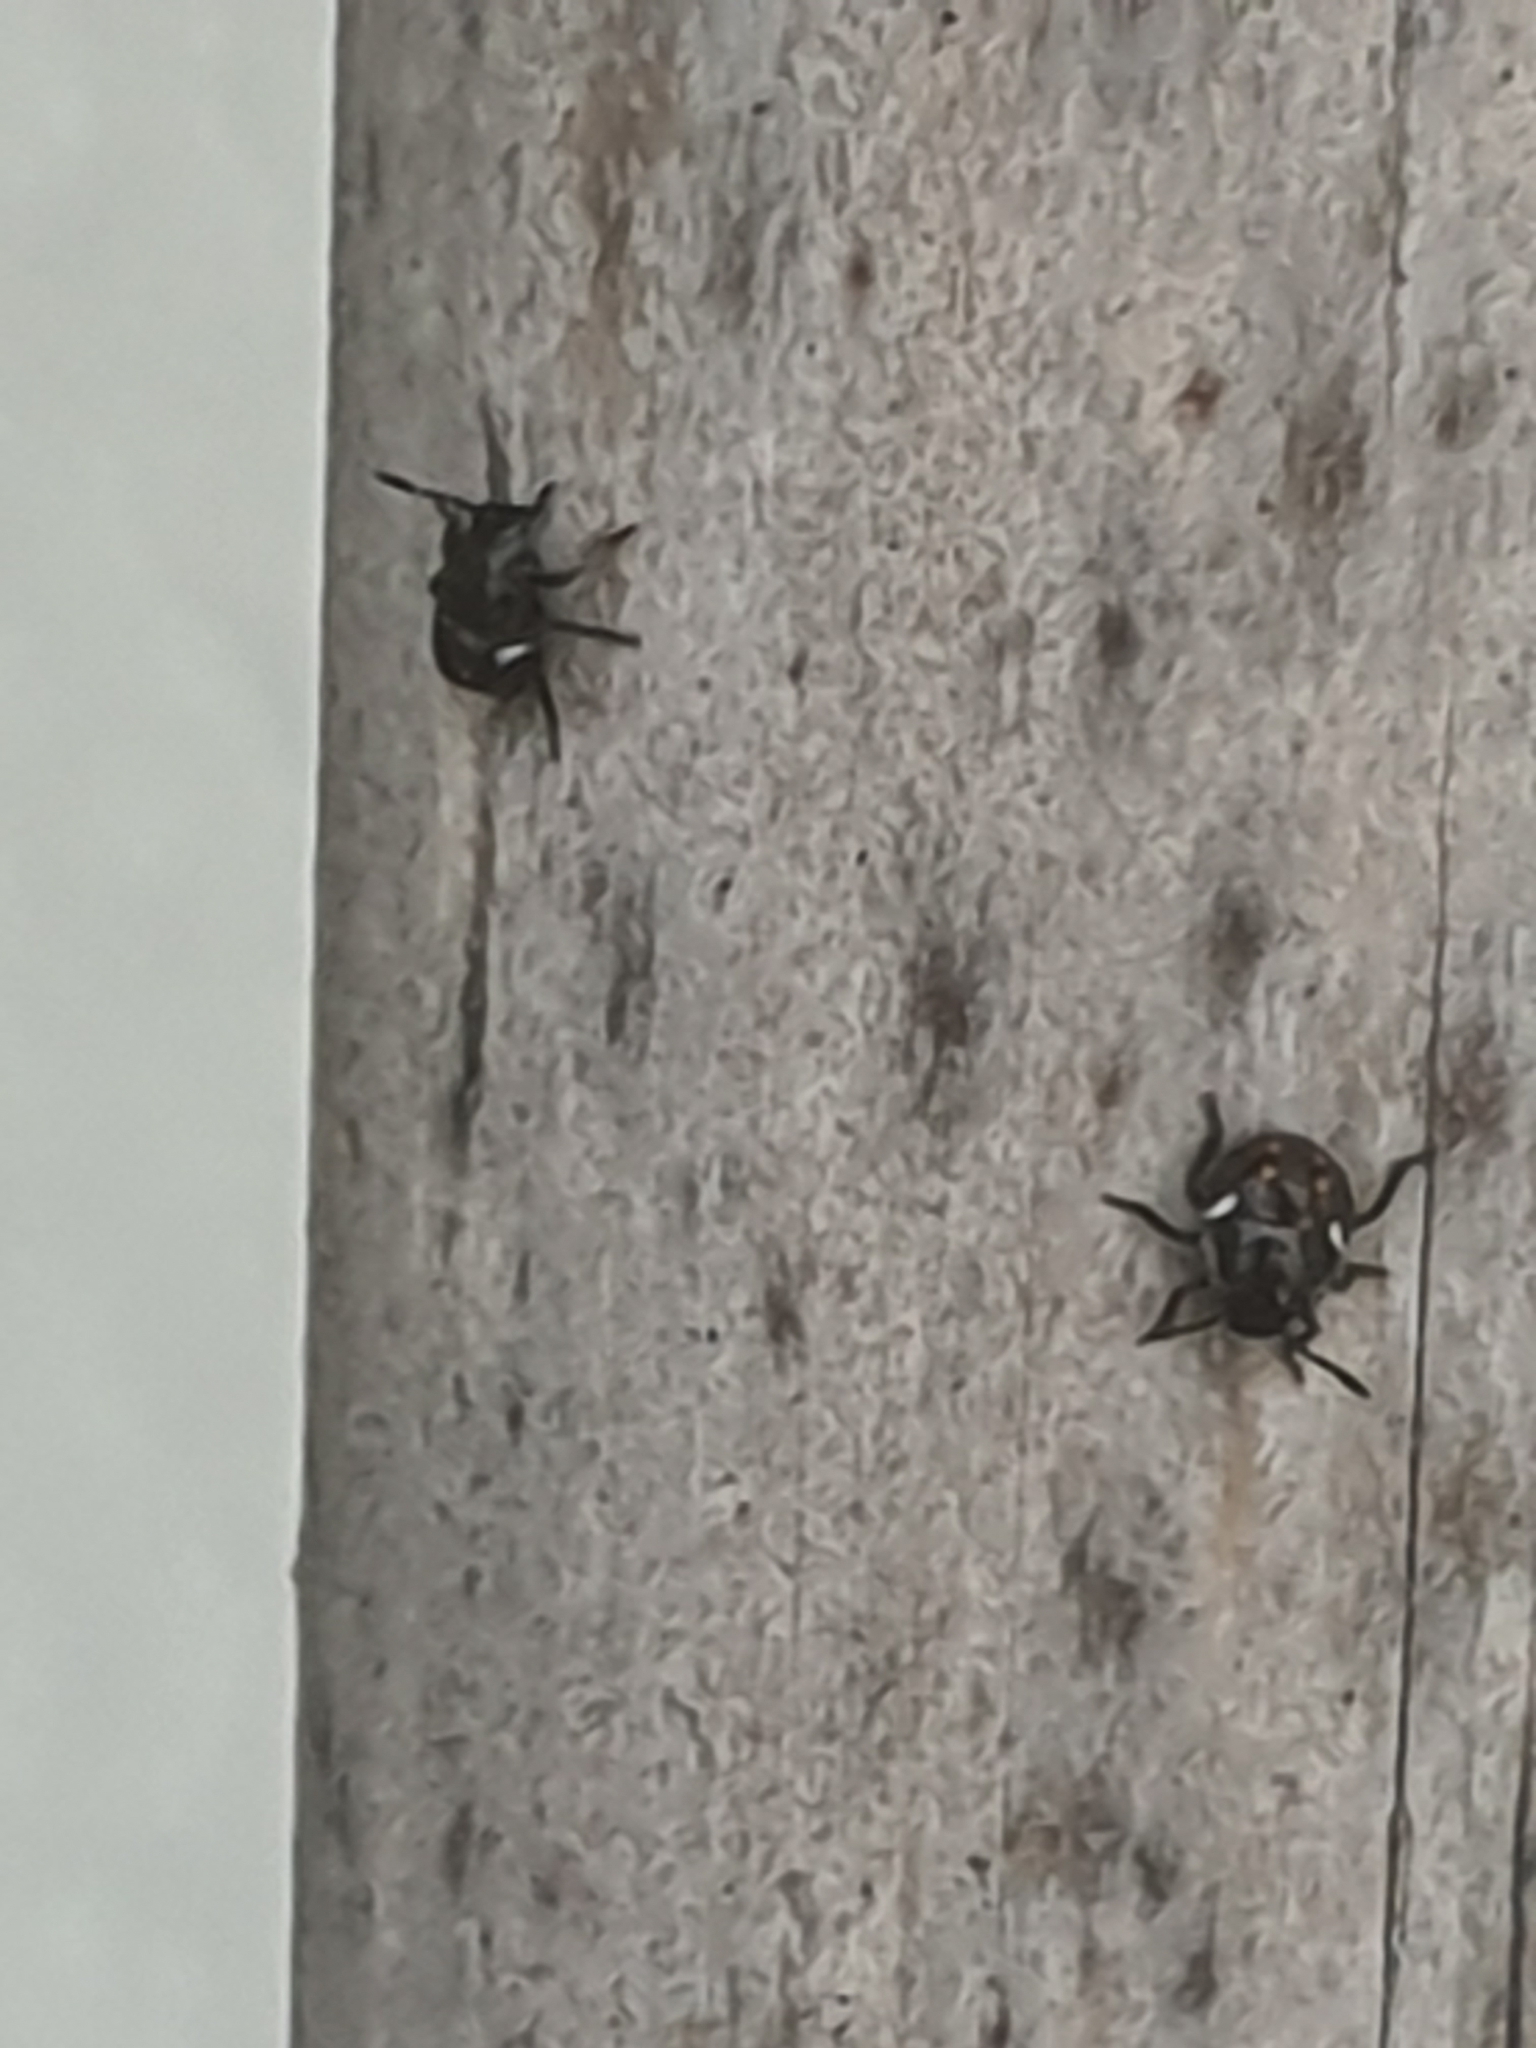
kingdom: Animalia
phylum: Arthropoda
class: Insecta
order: Hemiptera
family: Pentatomidae
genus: Nezara
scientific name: Nezara viridula
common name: Southern green stink bug
